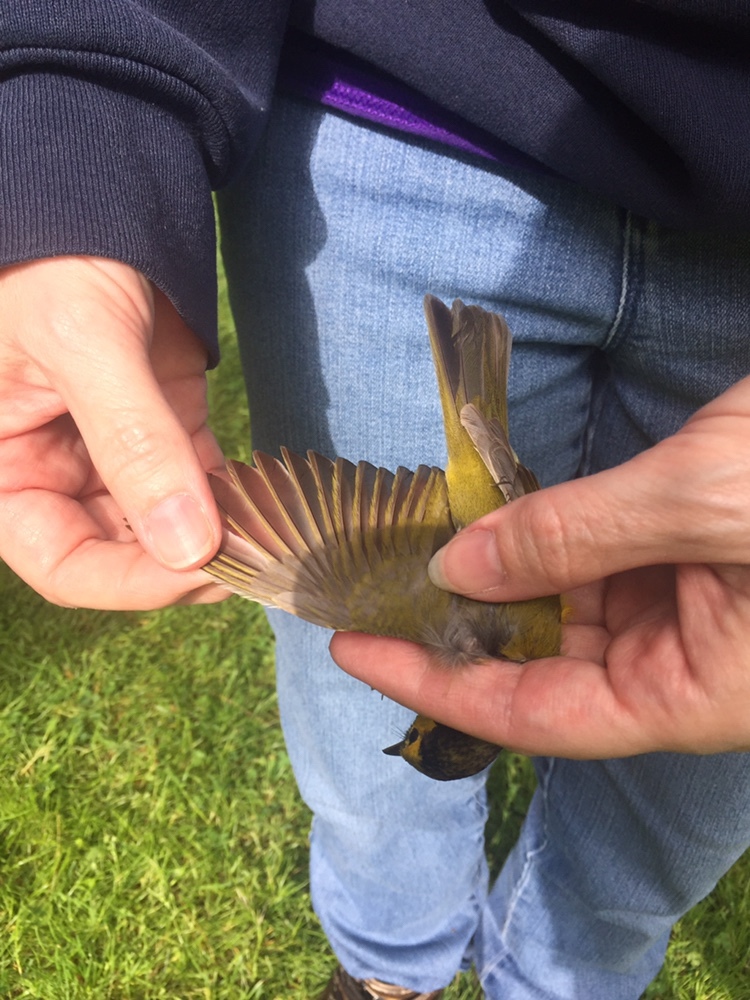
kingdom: Animalia
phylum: Chordata
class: Aves
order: Passeriformes
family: Parulidae
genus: Setophaga
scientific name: Setophaga citrina
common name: Hooded warbler
